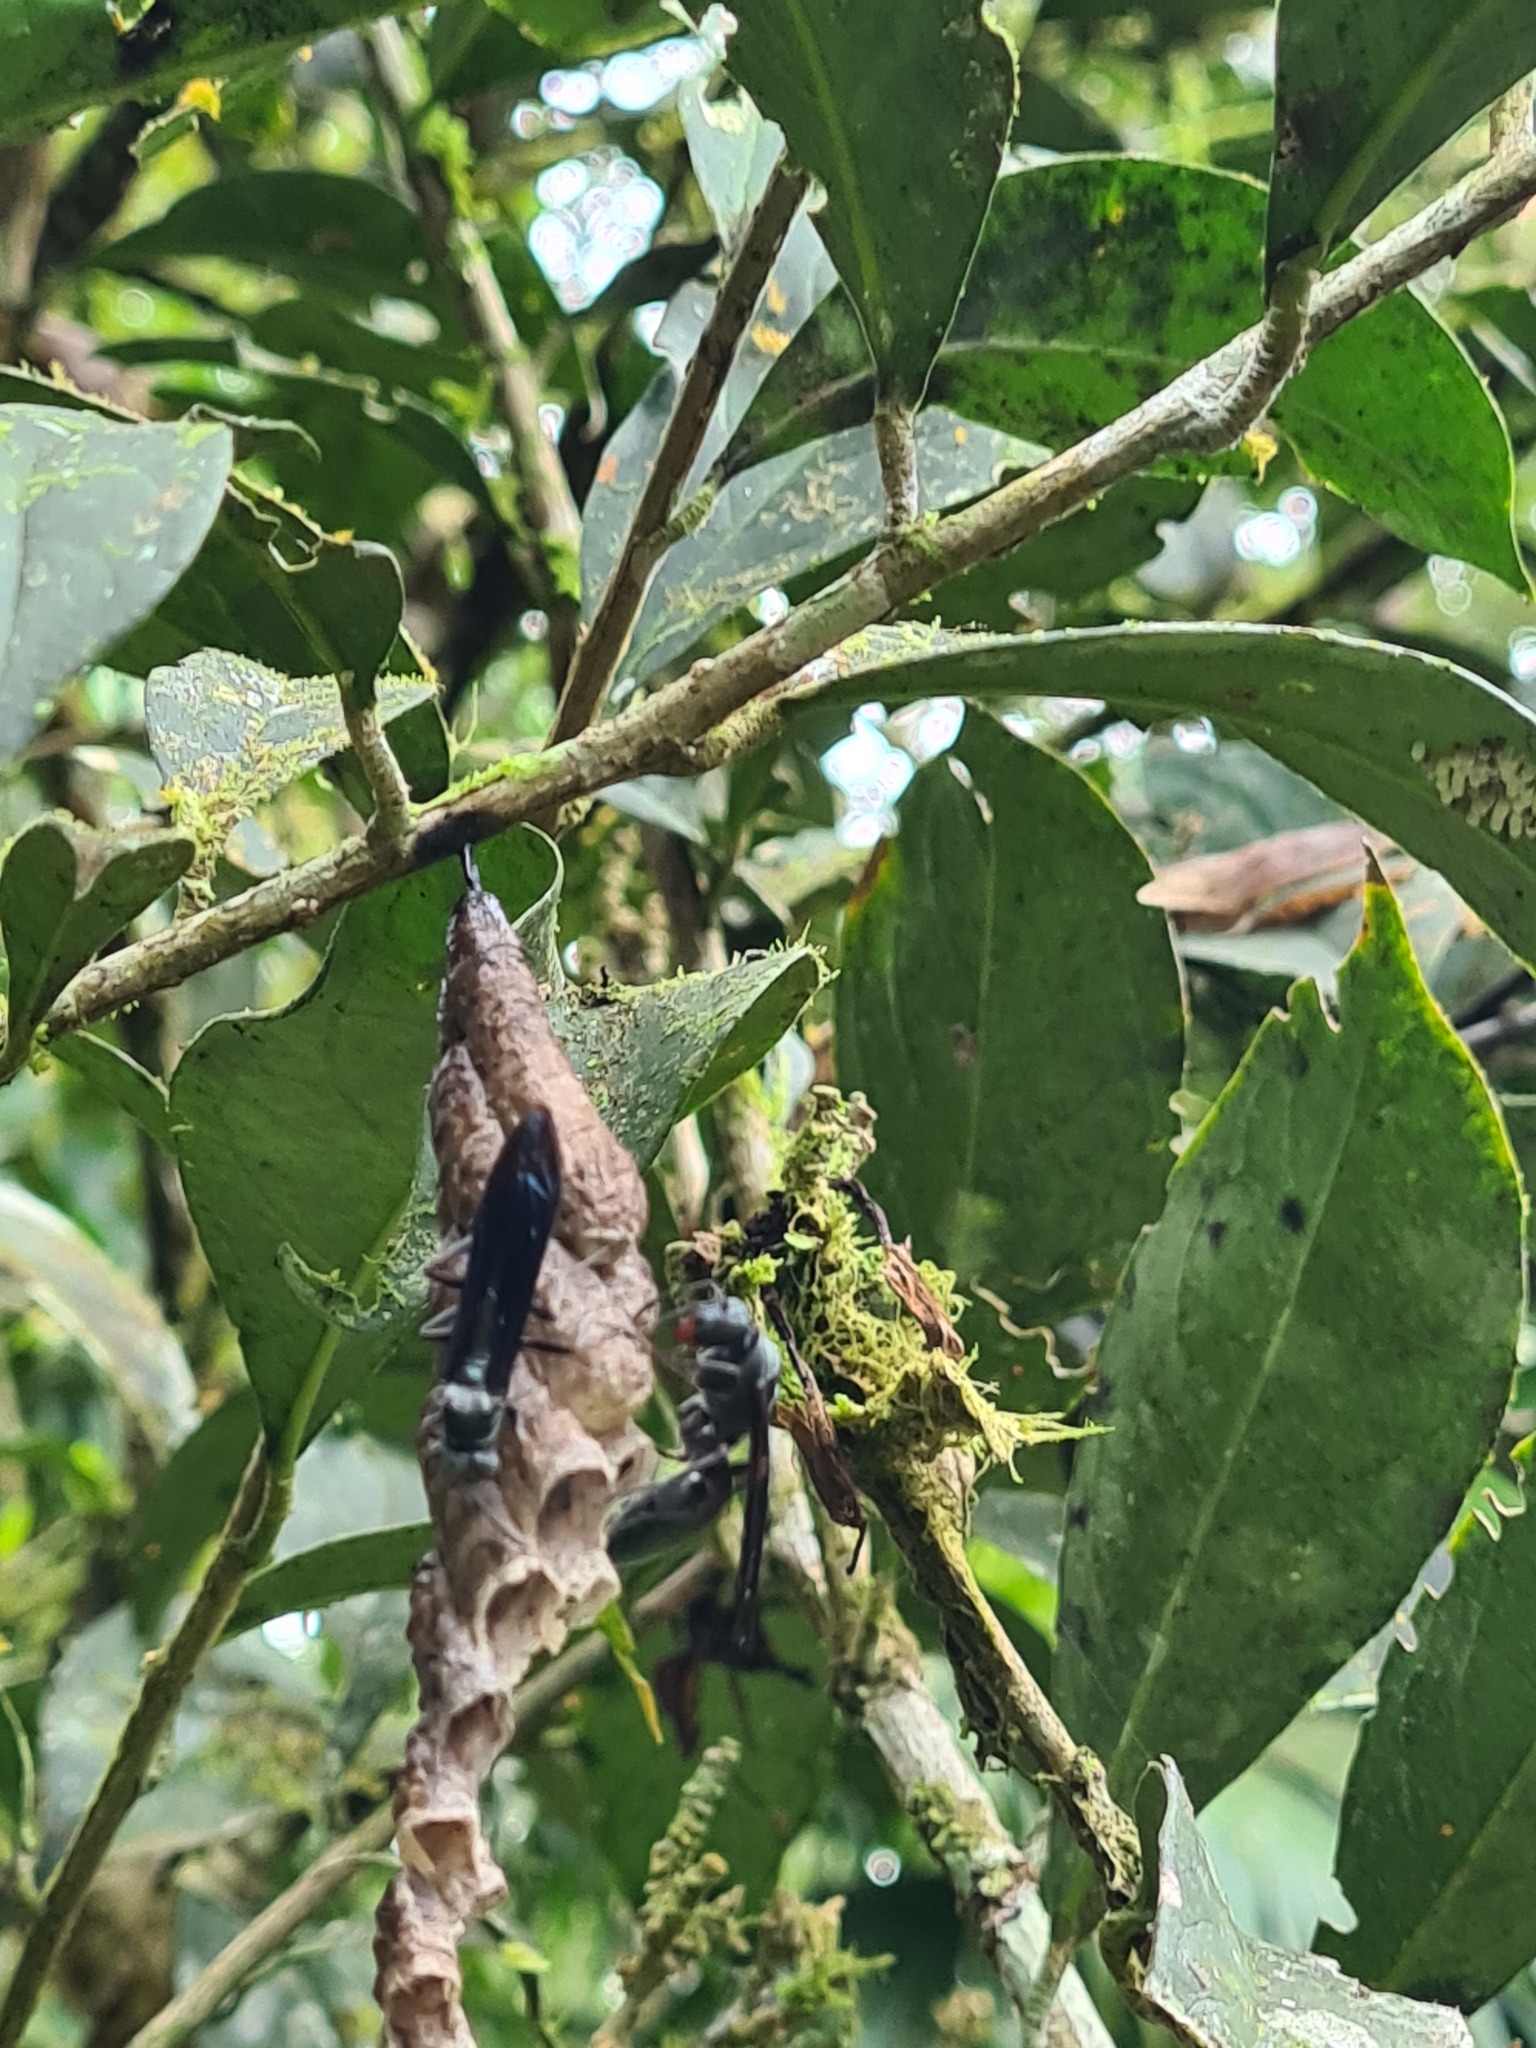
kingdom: Animalia
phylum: Arthropoda
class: Insecta
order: Hymenoptera
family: Eumenidae
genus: Polistes
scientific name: Polistes goeldii
